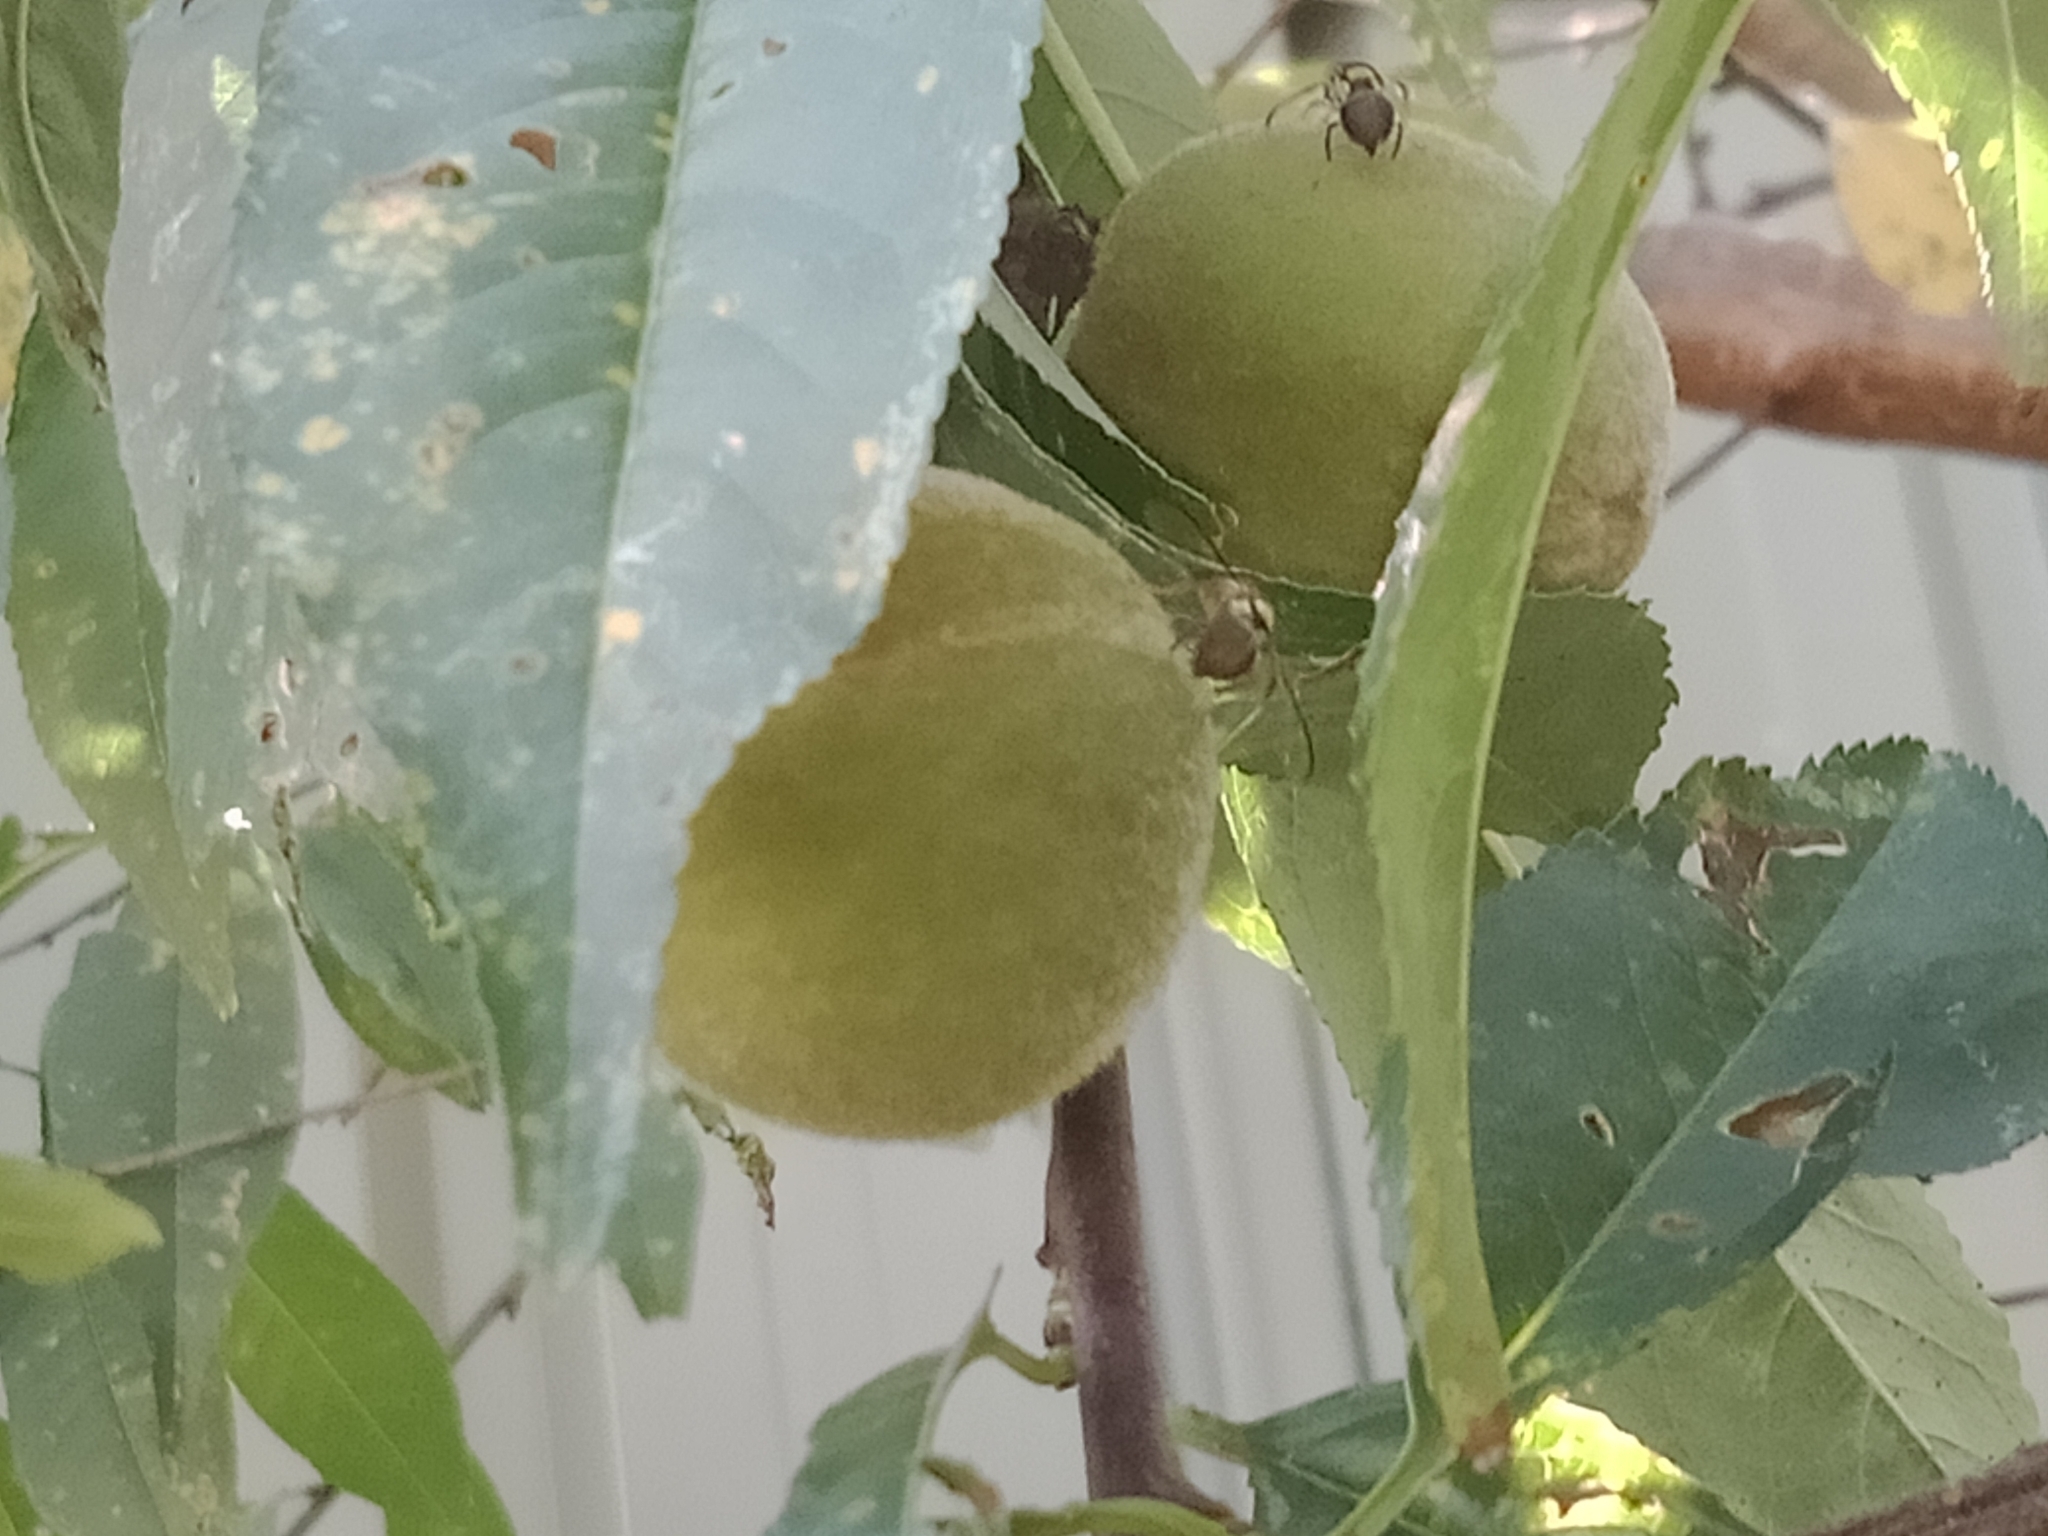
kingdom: Animalia
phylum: Arthropoda
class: Insecta
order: Diptera
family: Tephritidae
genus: Bactrocera
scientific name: Bactrocera tryoni
